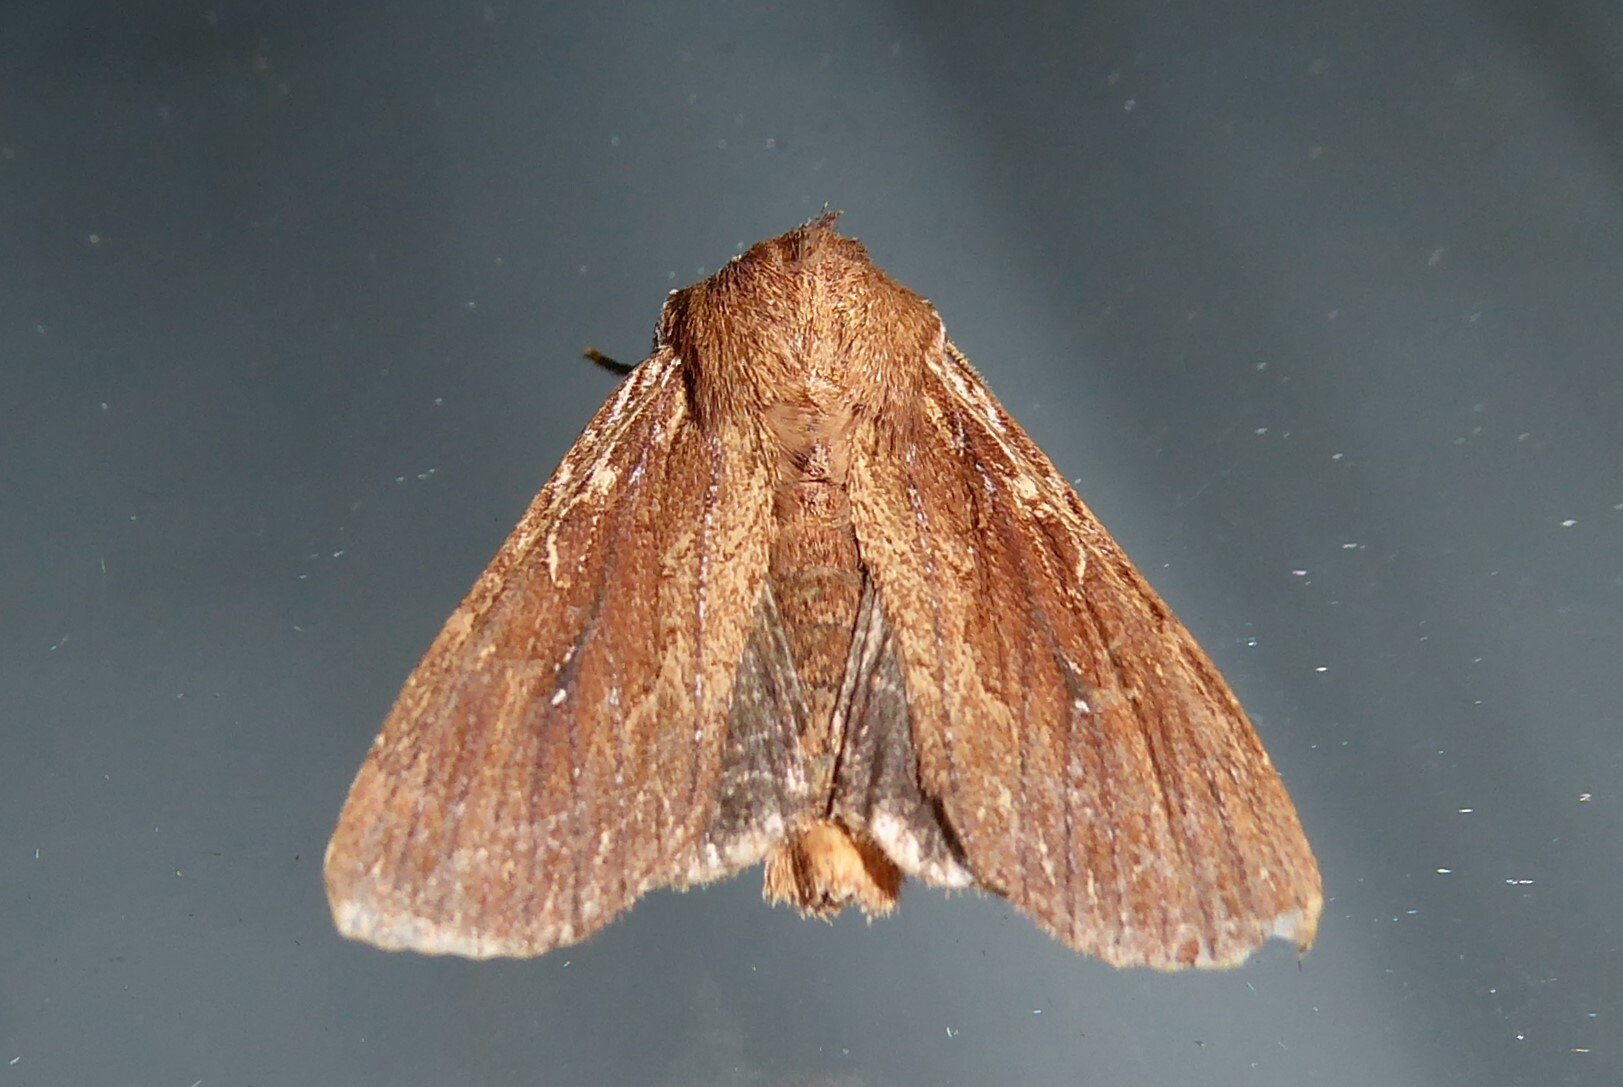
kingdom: Animalia
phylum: Arthropoda
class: Insecta
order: Lepidoptera
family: Noctuidae
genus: Ichneutica
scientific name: Ichneutica
